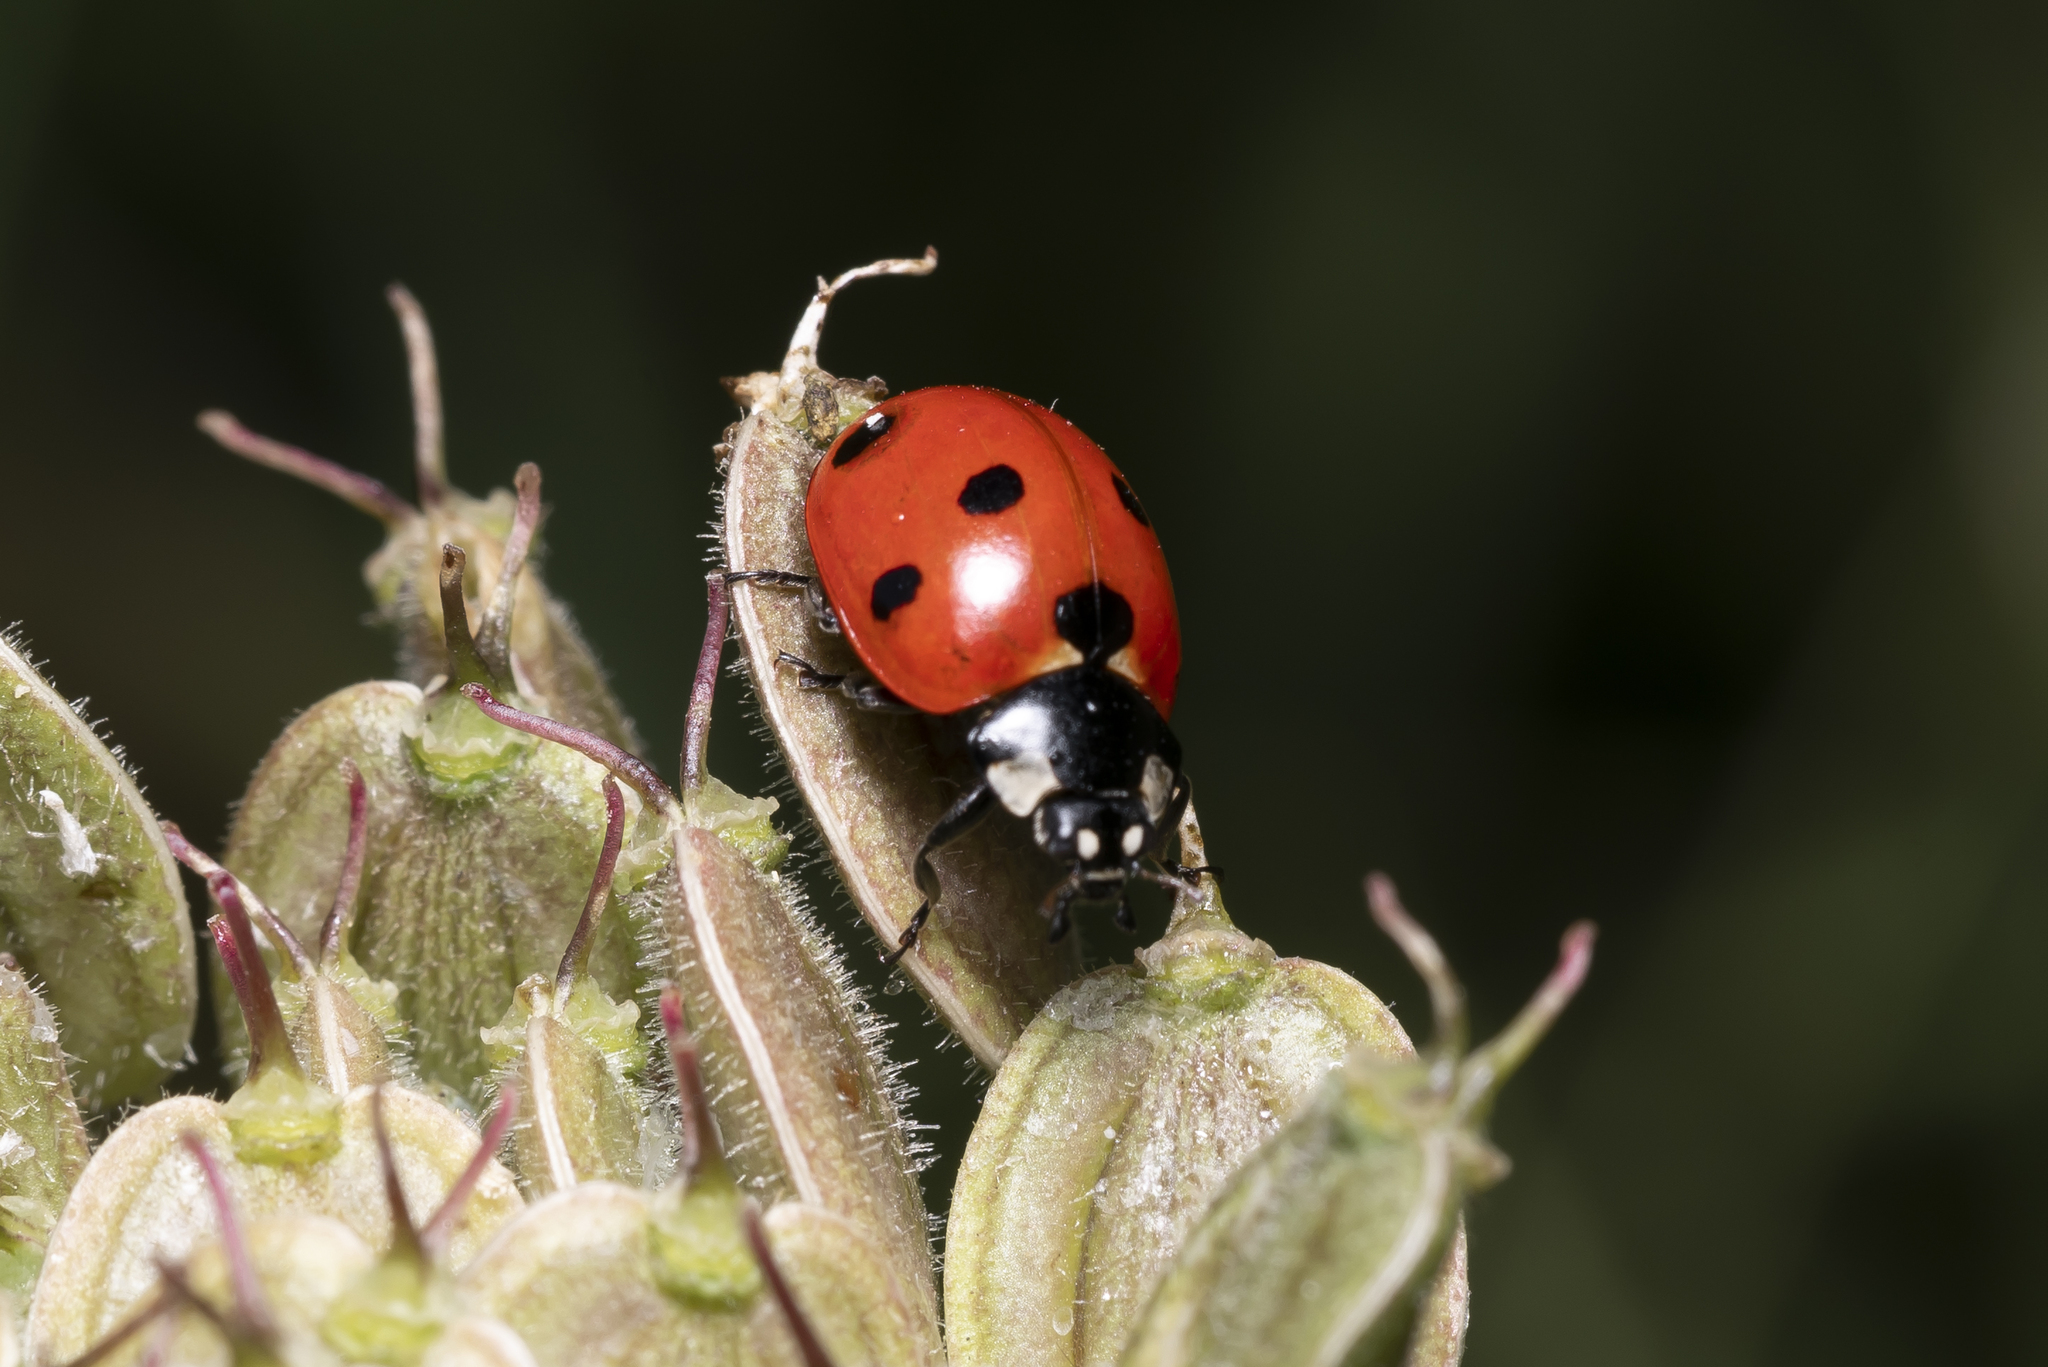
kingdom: Animalia
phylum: Arthropoda
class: Insecta
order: Coleoptera
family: Coccinellidae
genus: Coccinella
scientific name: Coccinella septempunctata
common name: Sevenspotted lady beetle
